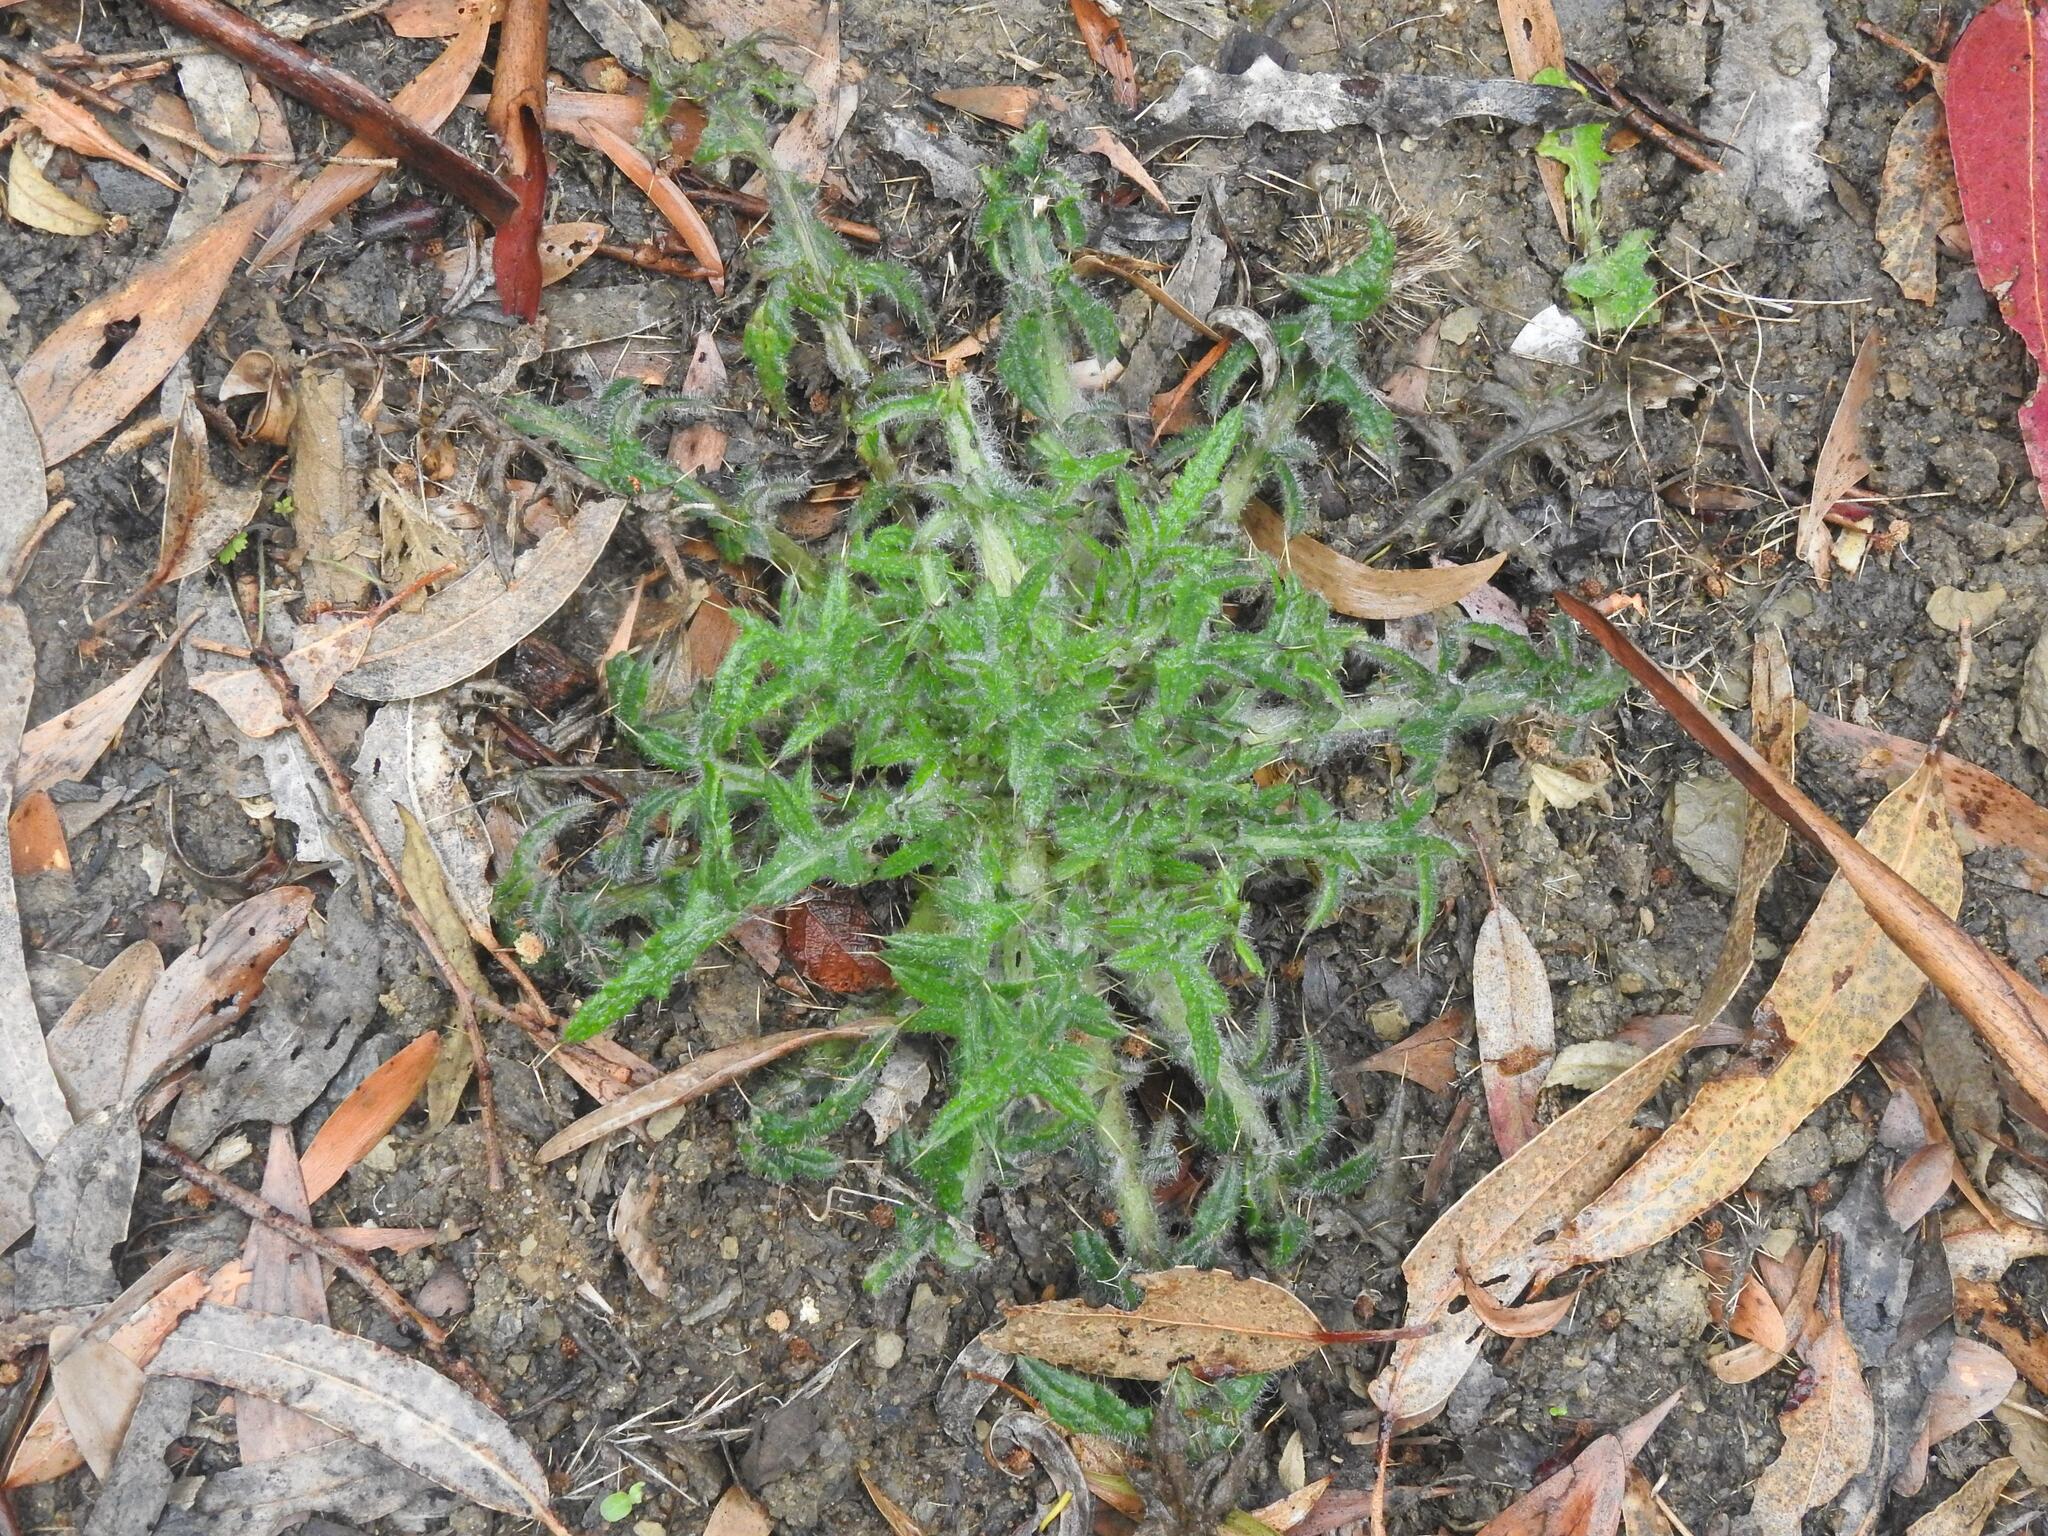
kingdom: Plantae
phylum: Tracheophyta
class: Magnoliopsida
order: Asterales
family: Asteraceae
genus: Cirsium
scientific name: Cirsium vulgare
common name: Bull thistle
